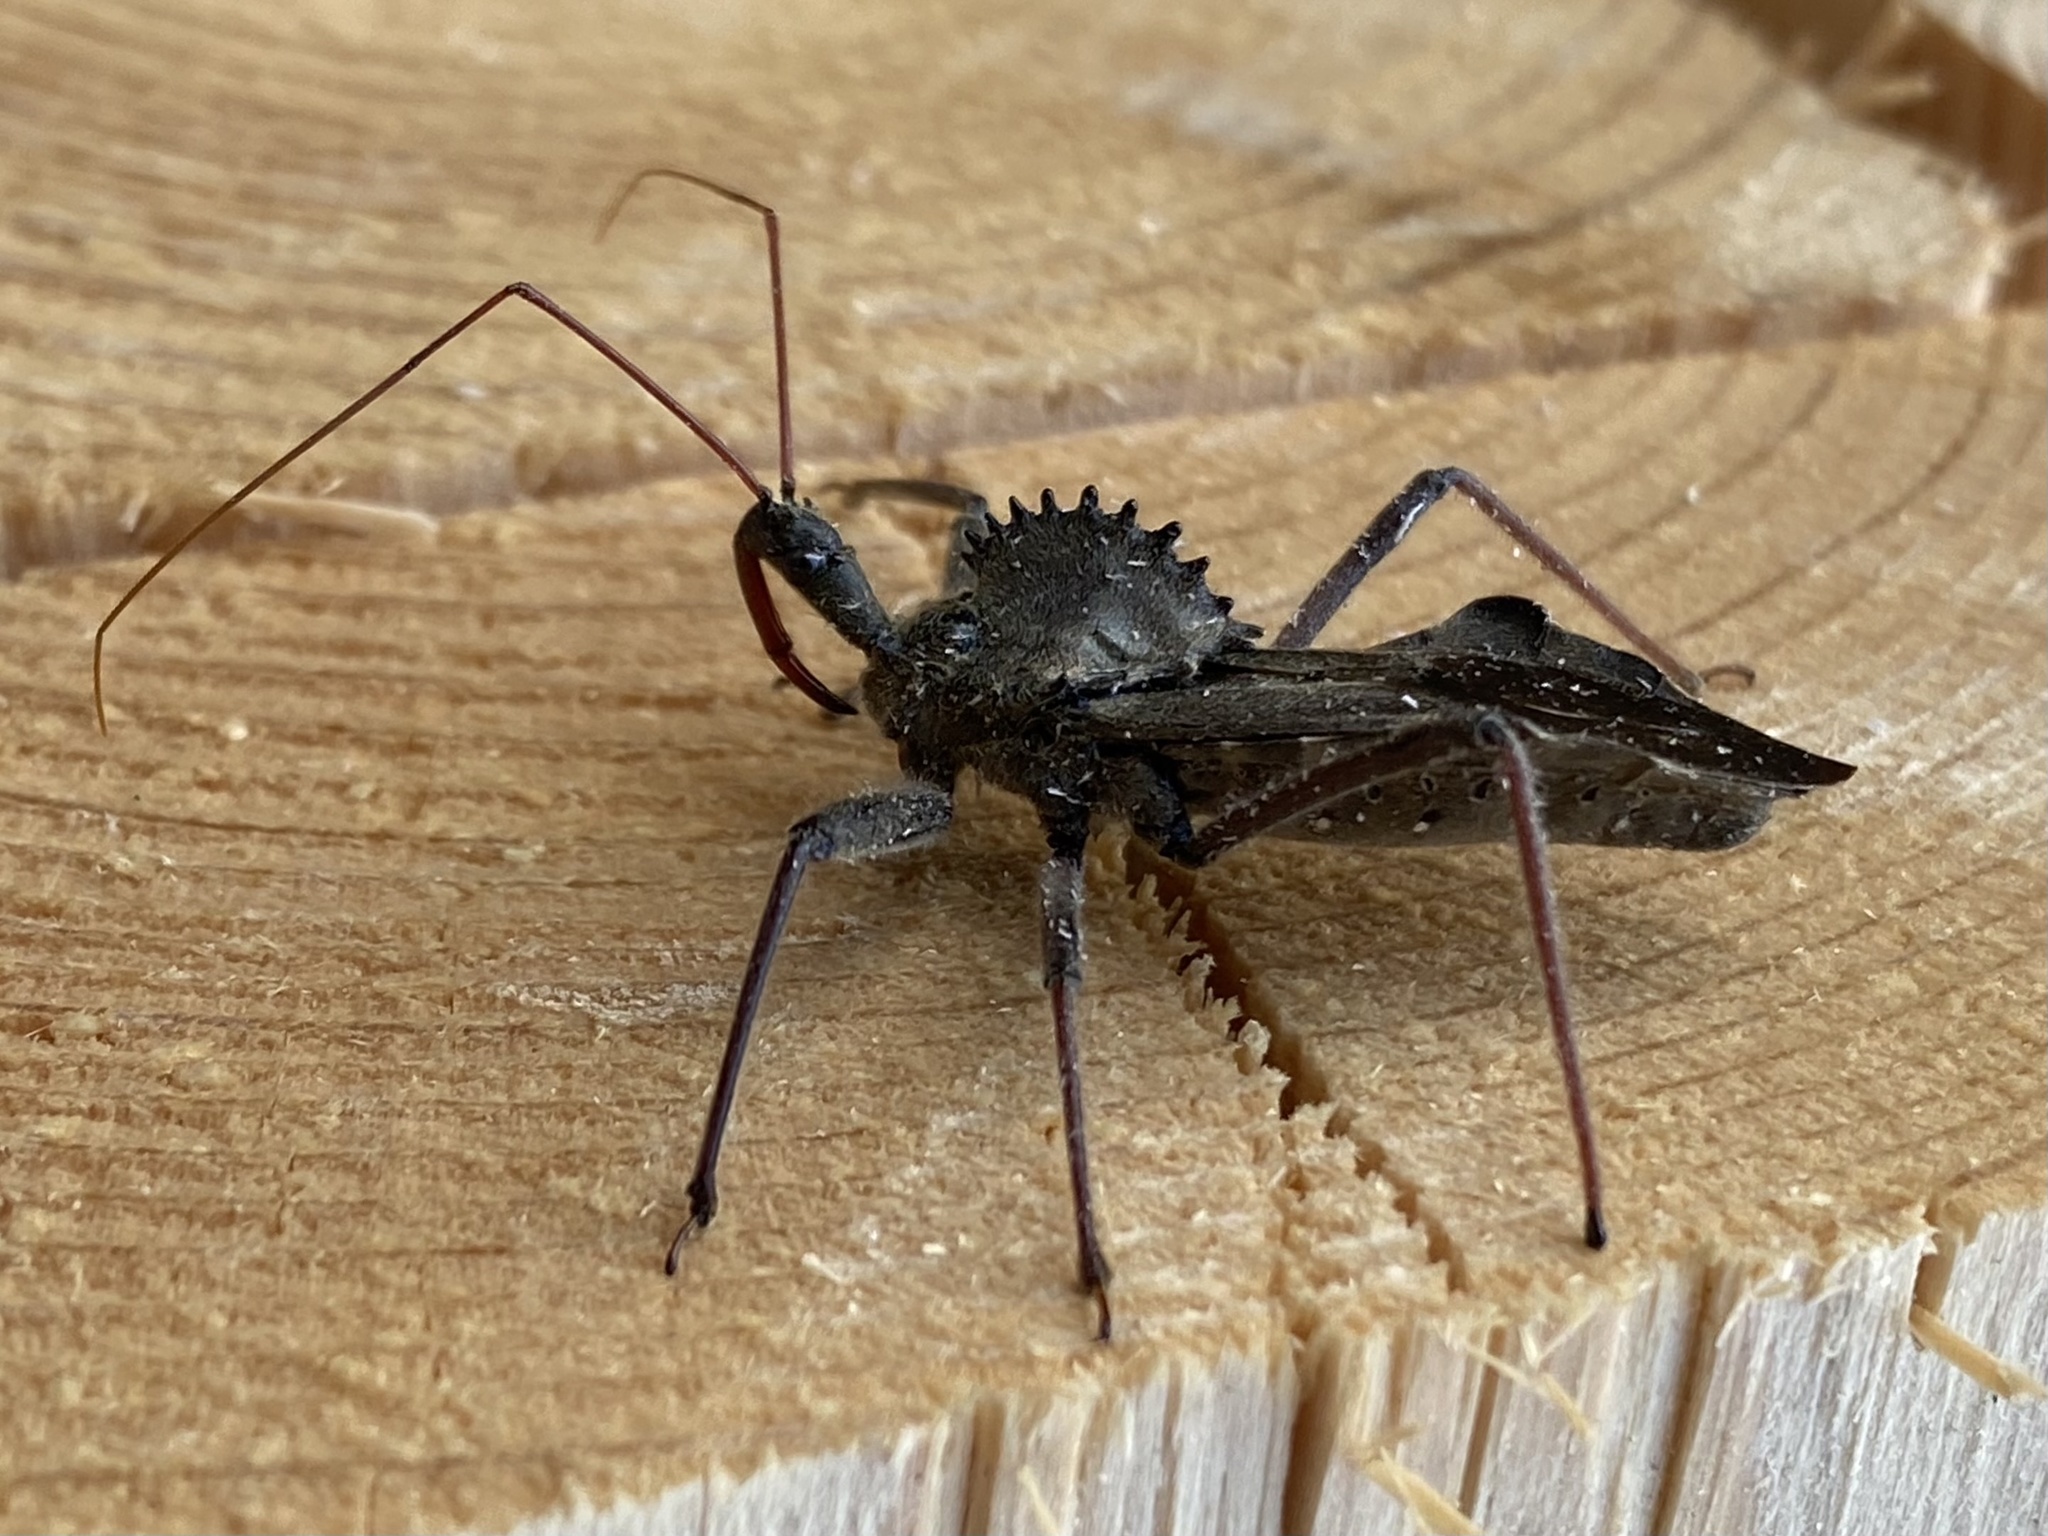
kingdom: Animalia
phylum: Arthropoda
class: Insecta
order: Hemiptera
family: Reduviidae
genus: Arilus
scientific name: Arilus cristatus
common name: North american wheel bug
